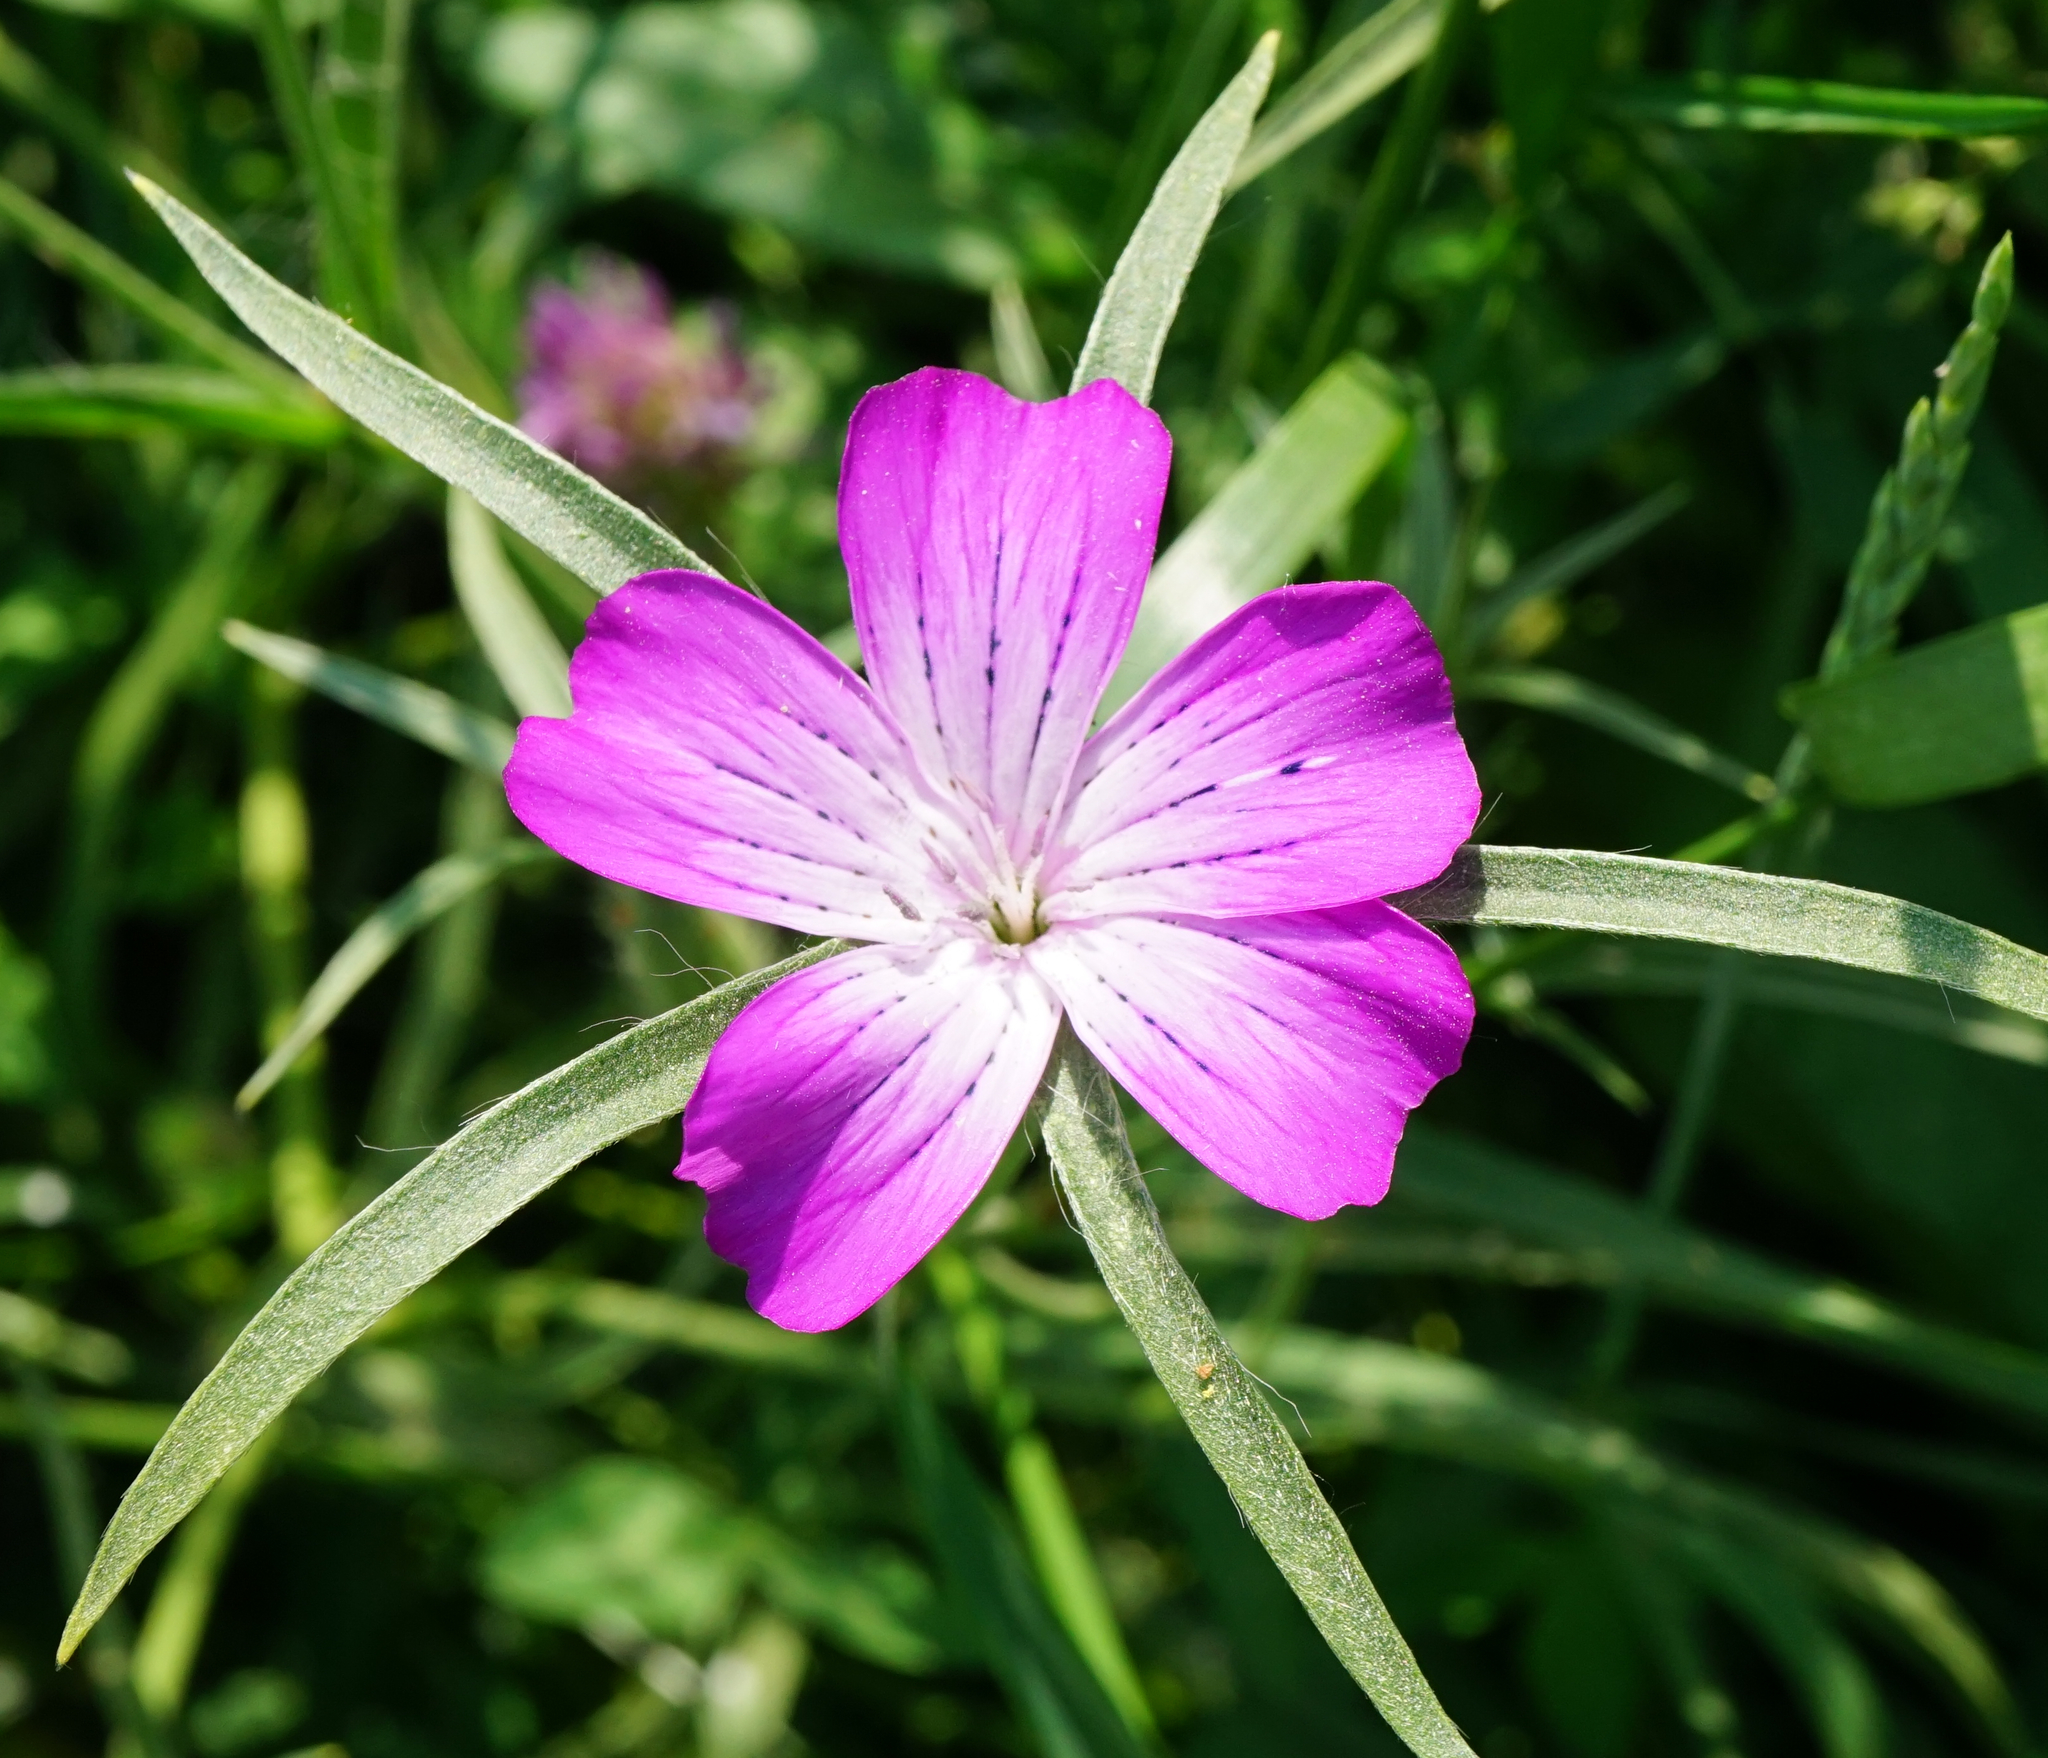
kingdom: Plantae
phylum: Tracheophyta
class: Magnoliopsida
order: Caryophyllales
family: Caryophyllaceae
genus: Agrostemma
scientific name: Agrostemma githago
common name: Common corncockle
